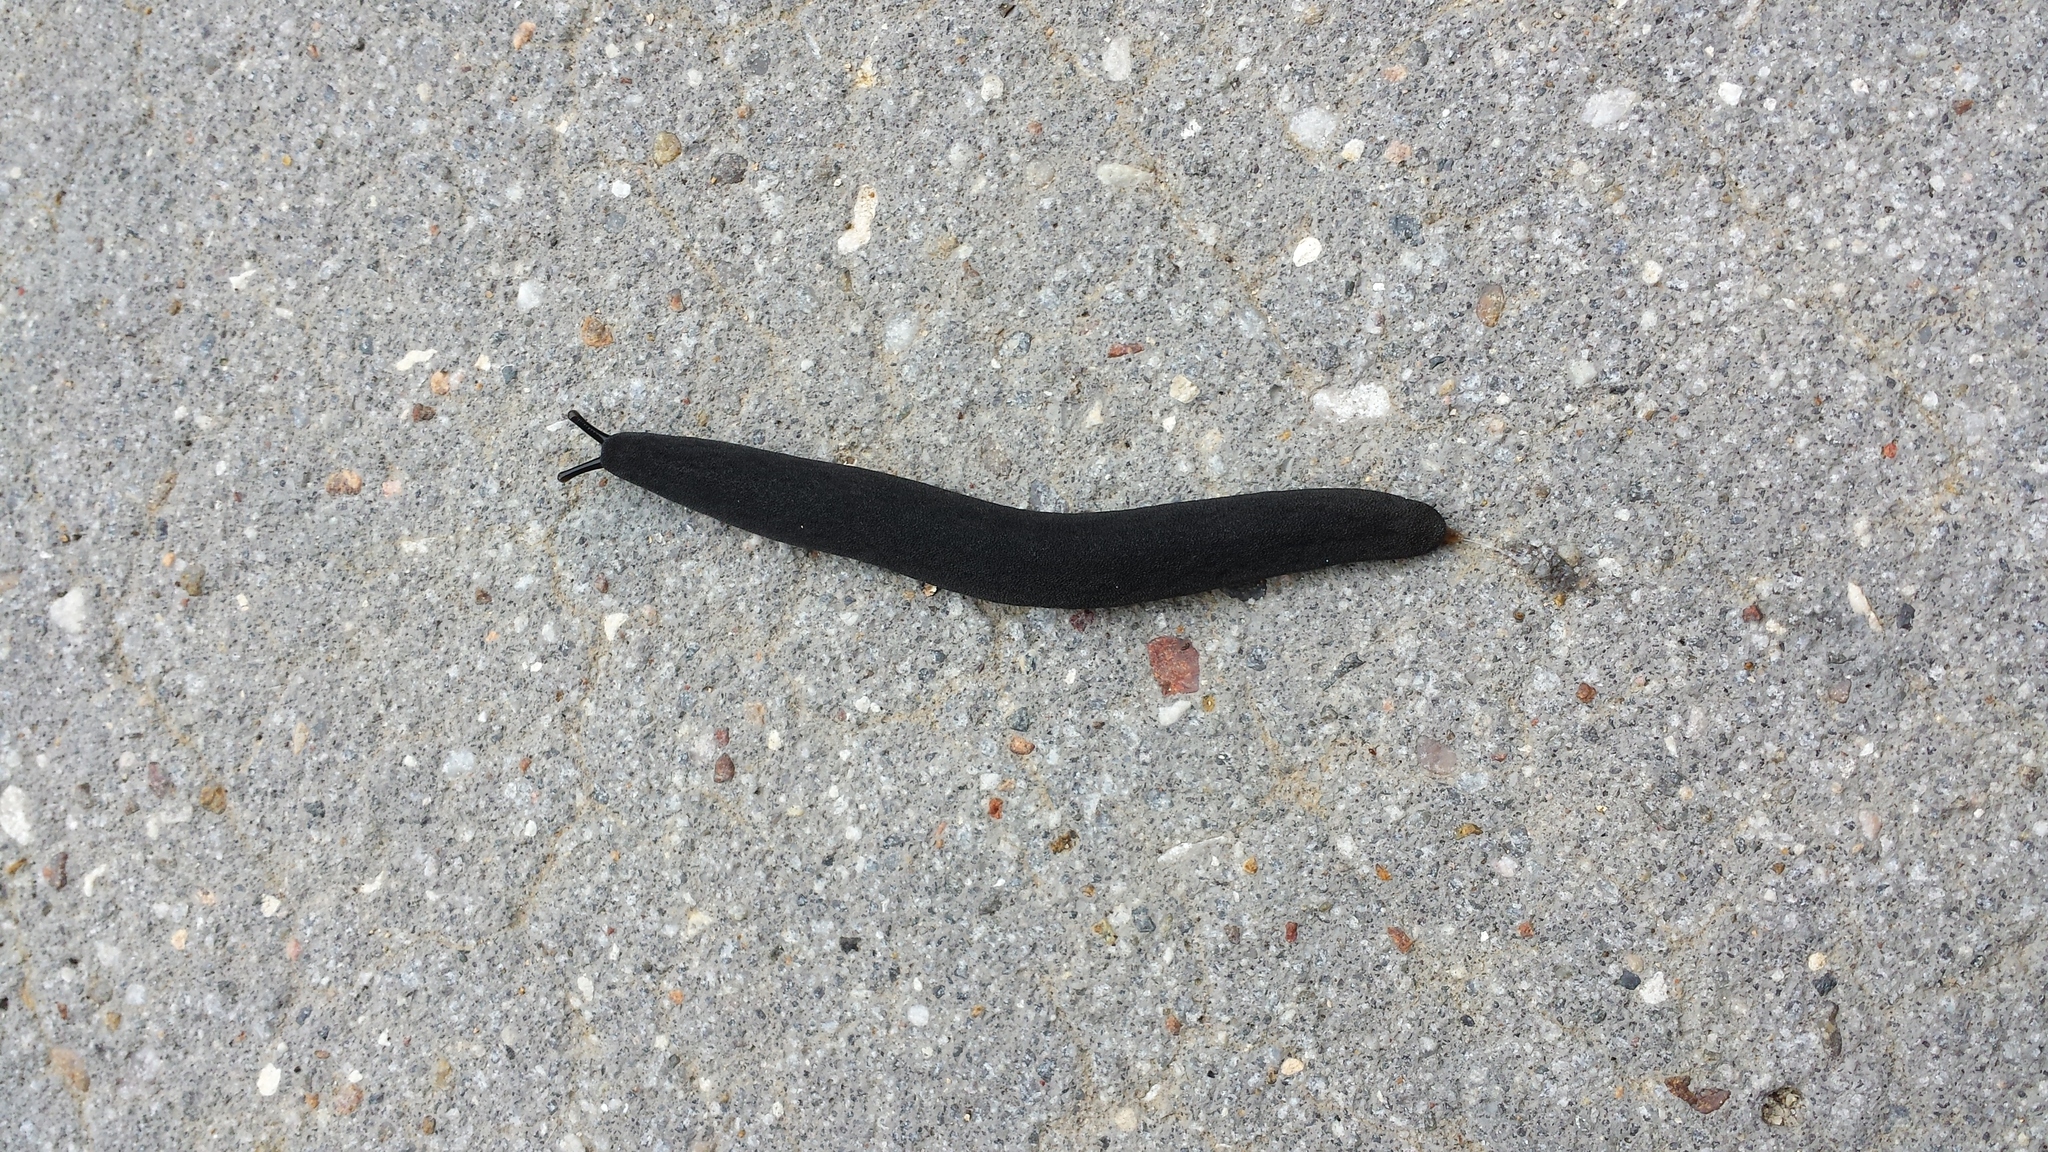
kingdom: Animalia
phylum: Mollusca
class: Gastropoda
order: Systellommatophora
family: Veronicellidae
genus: Belocaulus
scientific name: Belocaulus angustipes
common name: Black velvet leatherleaf slug
